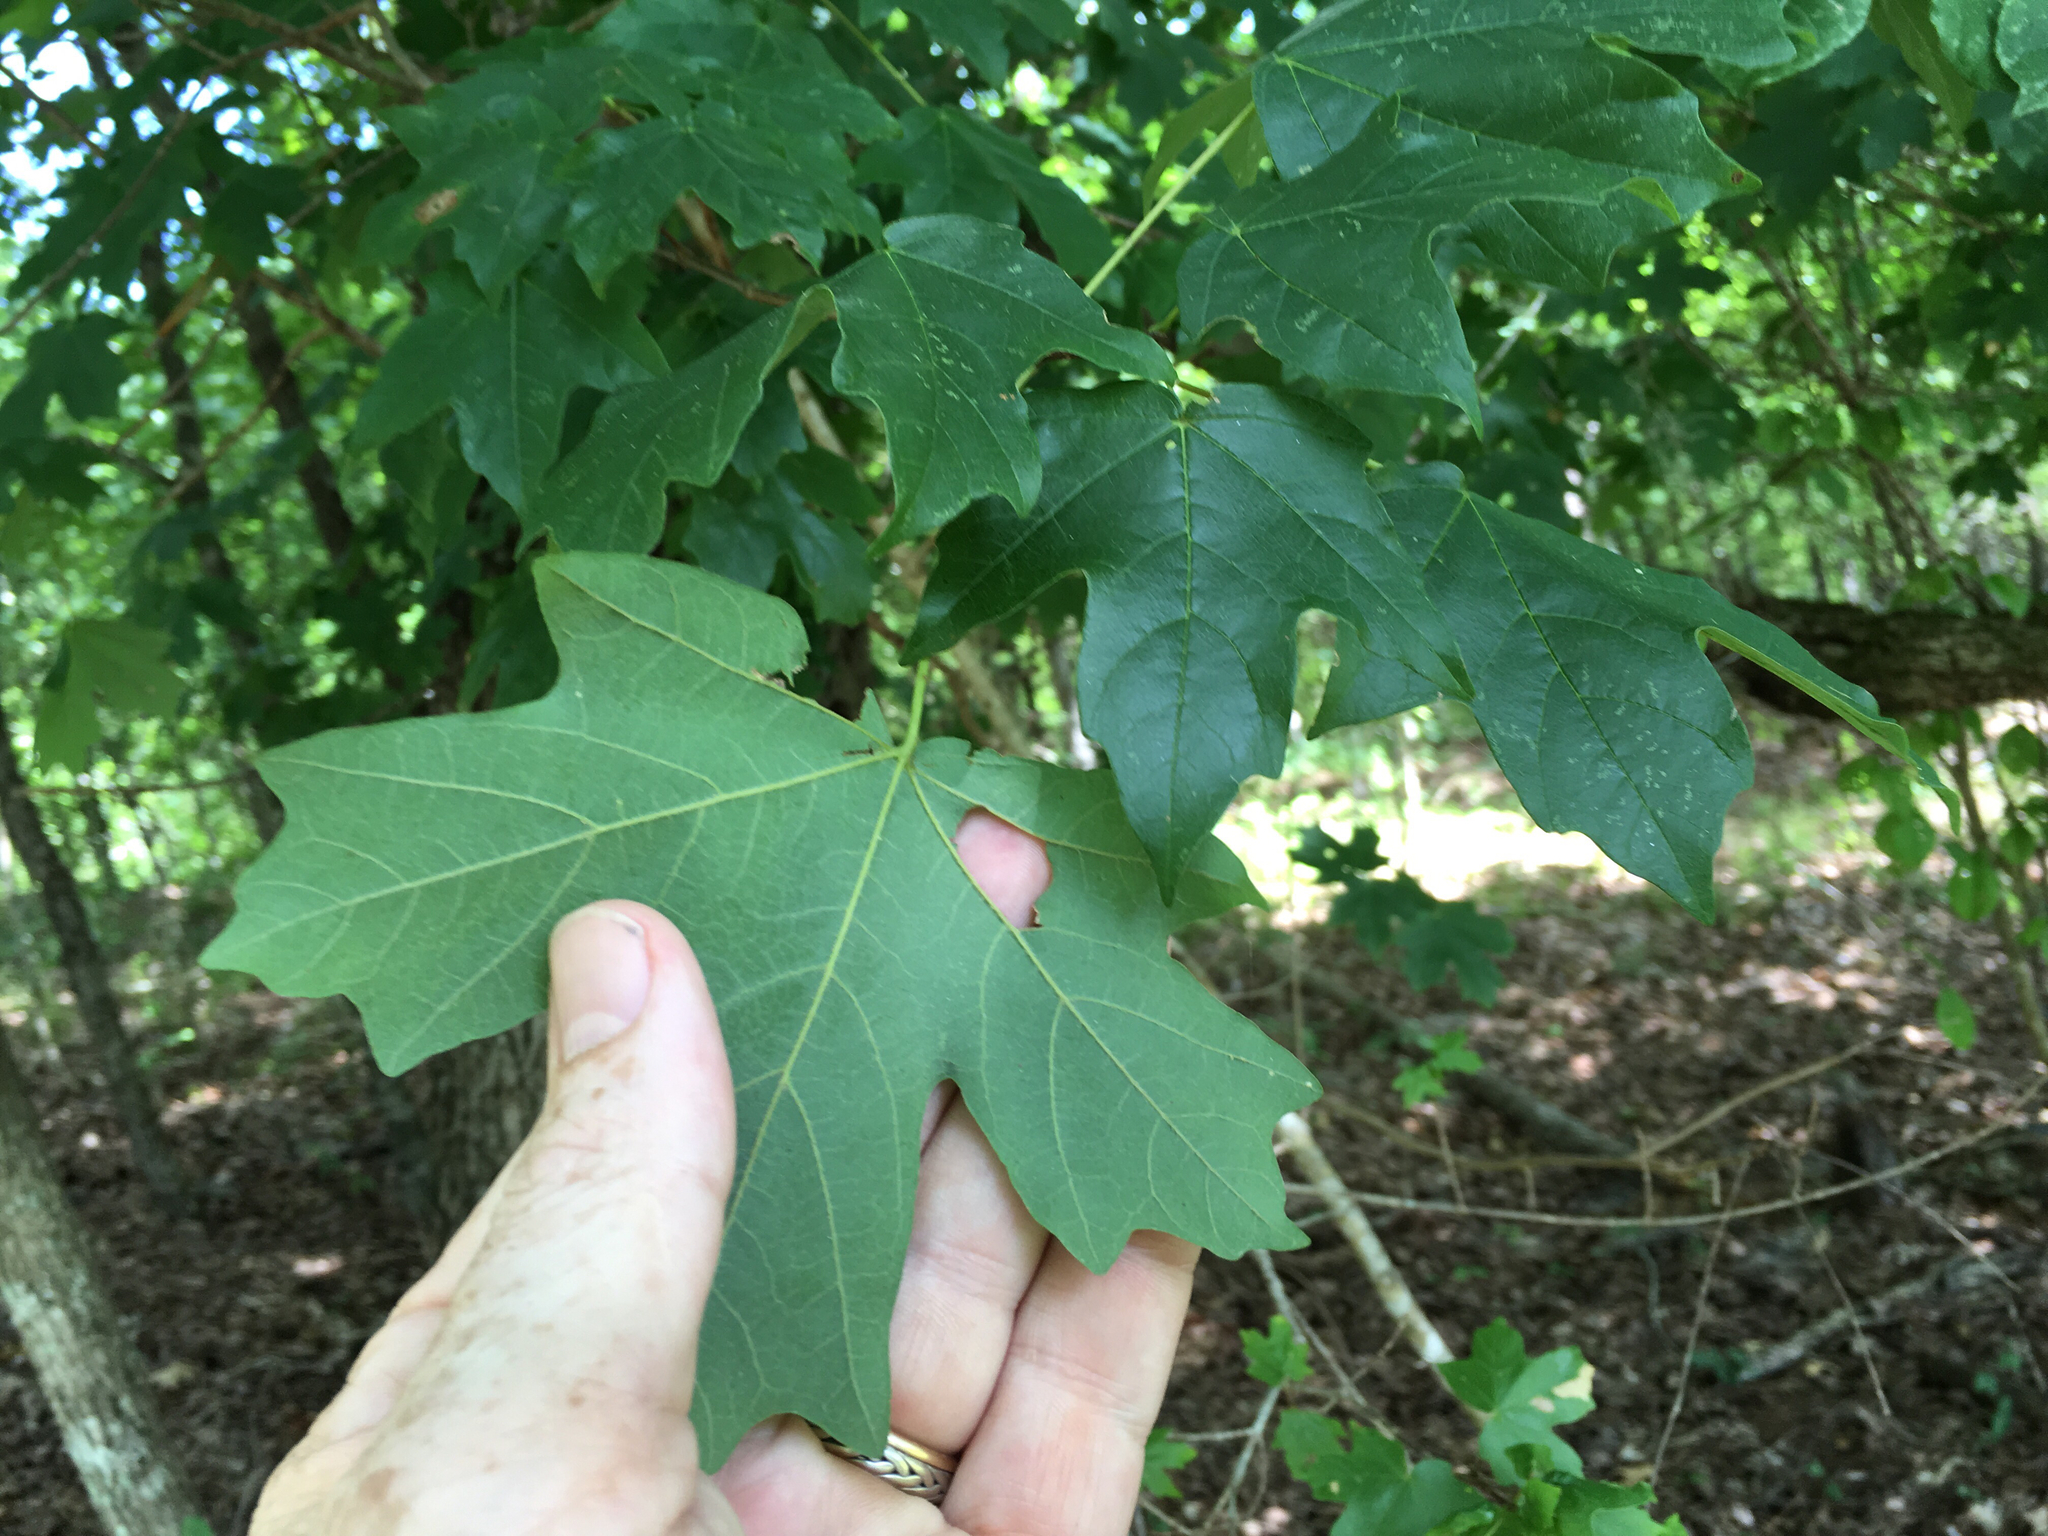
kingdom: Plantae
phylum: Tracheophyta
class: Magnoliopsida
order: Sapindales
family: Sapindaceae
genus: Acer
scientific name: Acer floridanum
